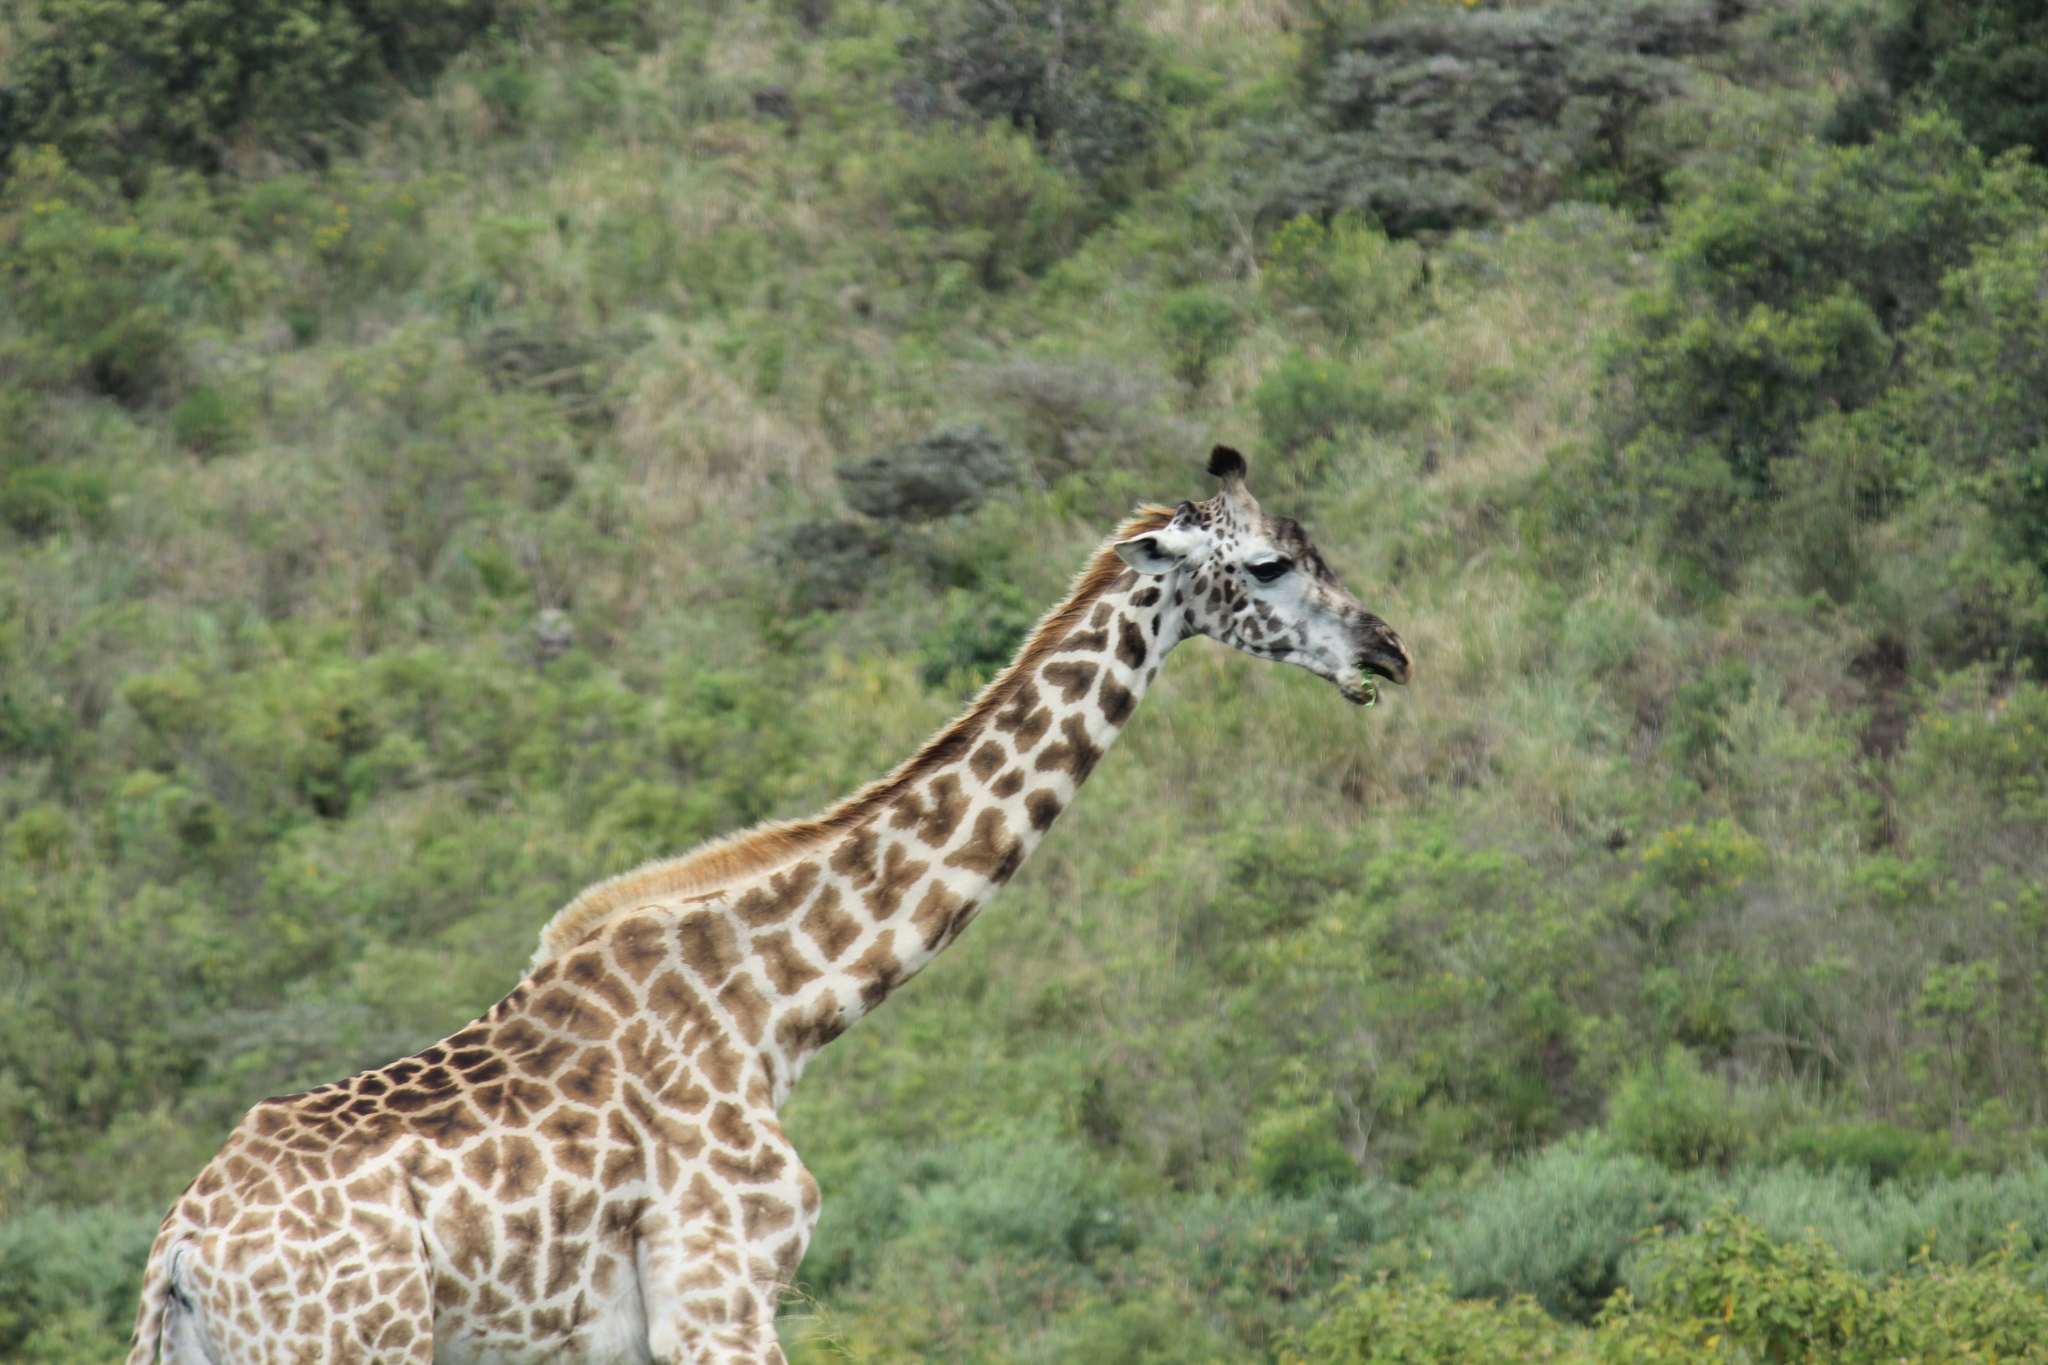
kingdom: Animalia
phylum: Chordata
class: Mammalia
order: Artiodactyla
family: Giraffidae
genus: Giraffa
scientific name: Giraffa tippelskirchi
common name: Masai giraffe
